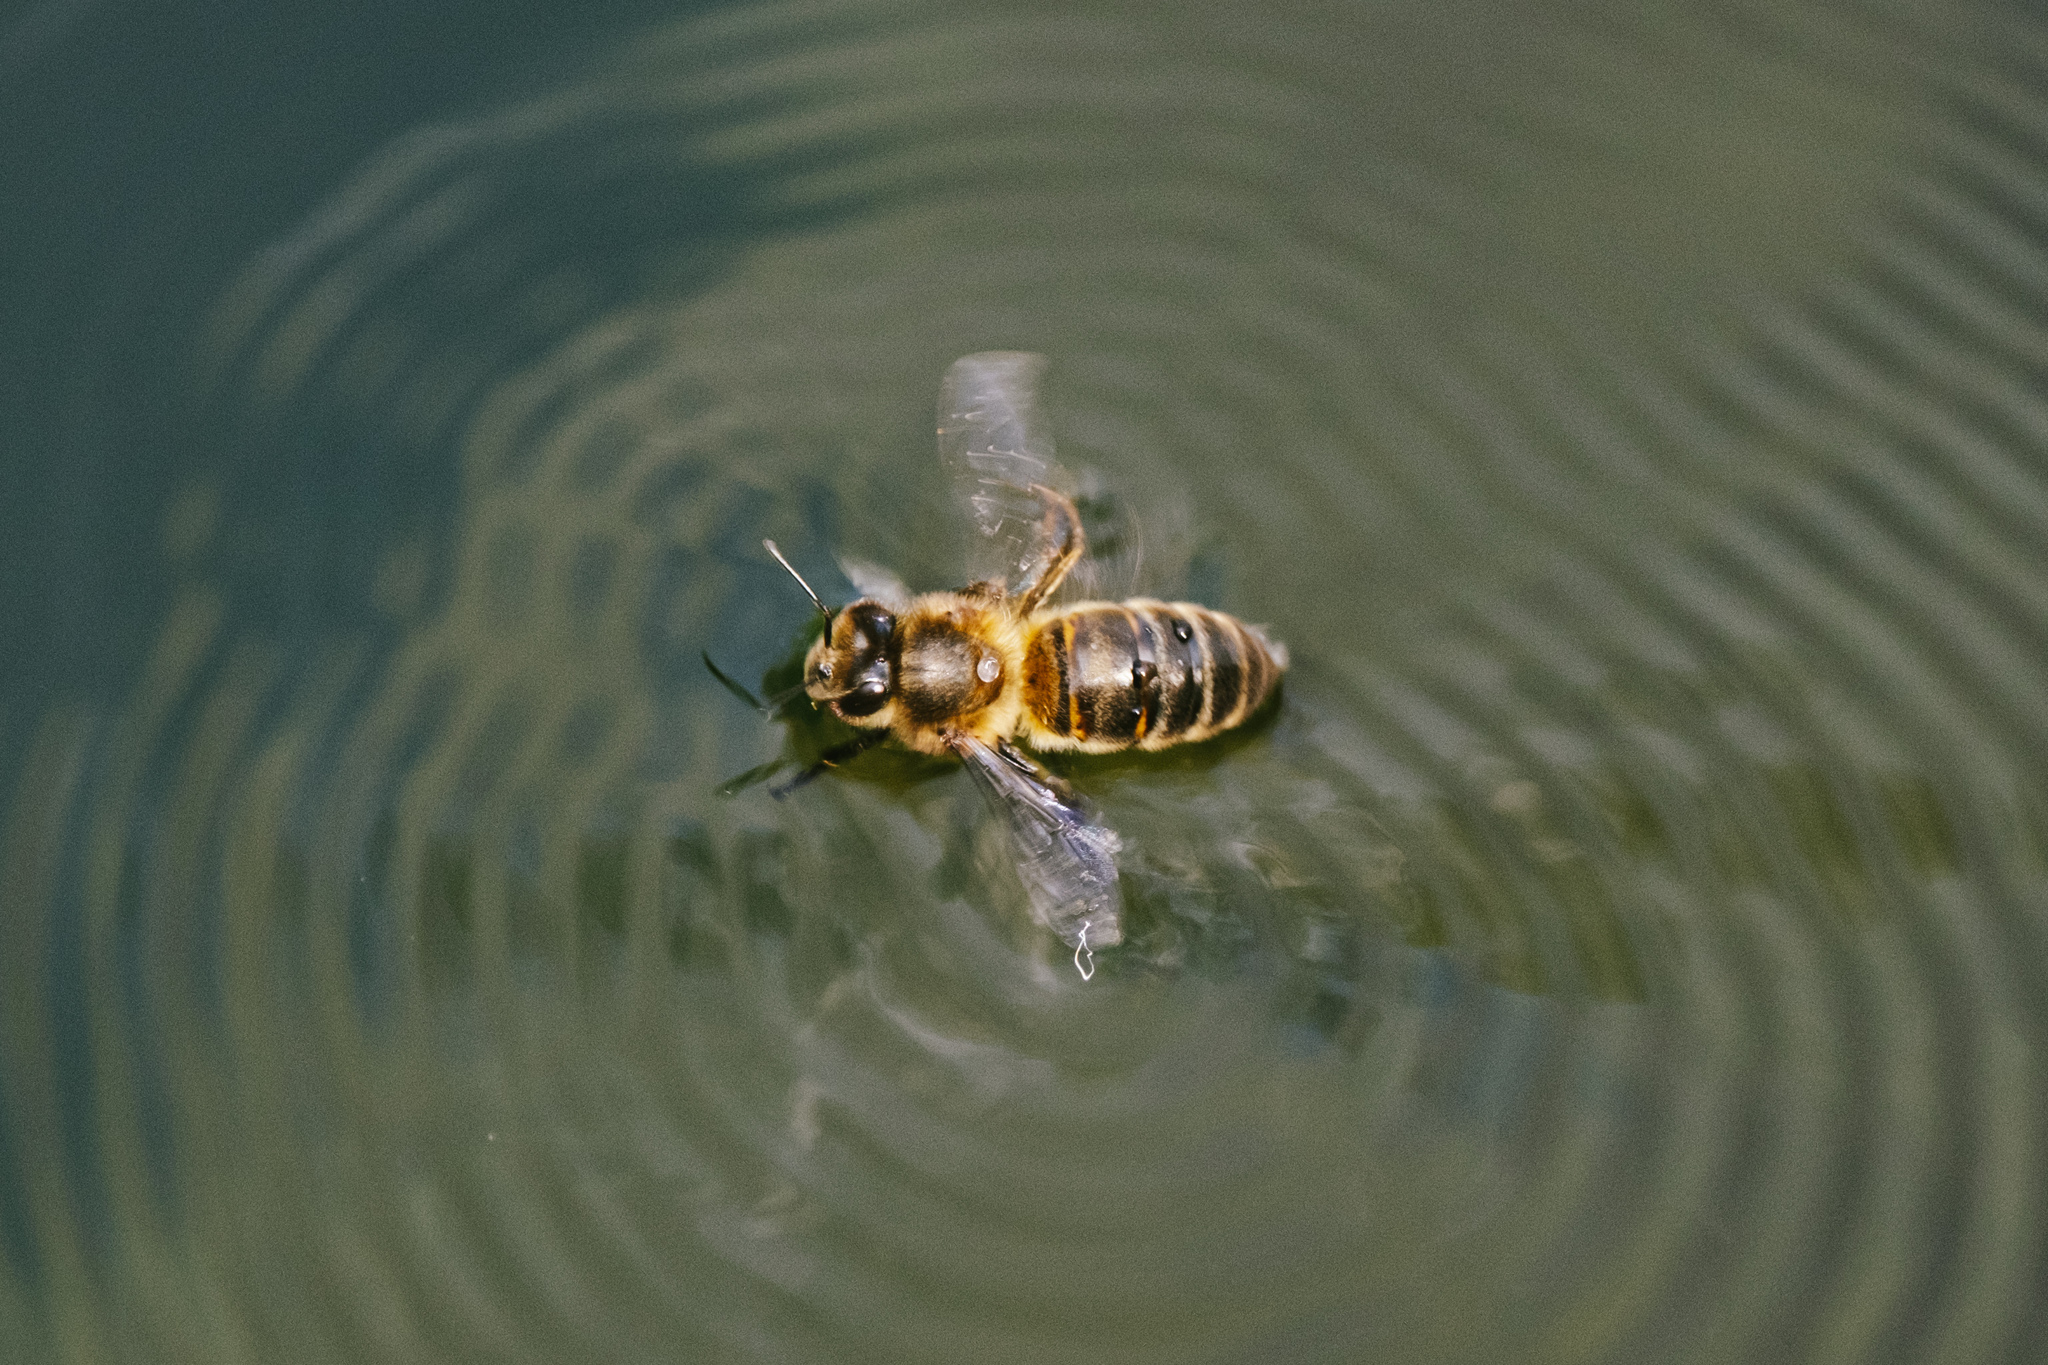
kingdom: Animalia
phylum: Arthropoda
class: Insecta
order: Hymenoptera
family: Apidae
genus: Apis
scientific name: Apis mellifera
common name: Honey bee
